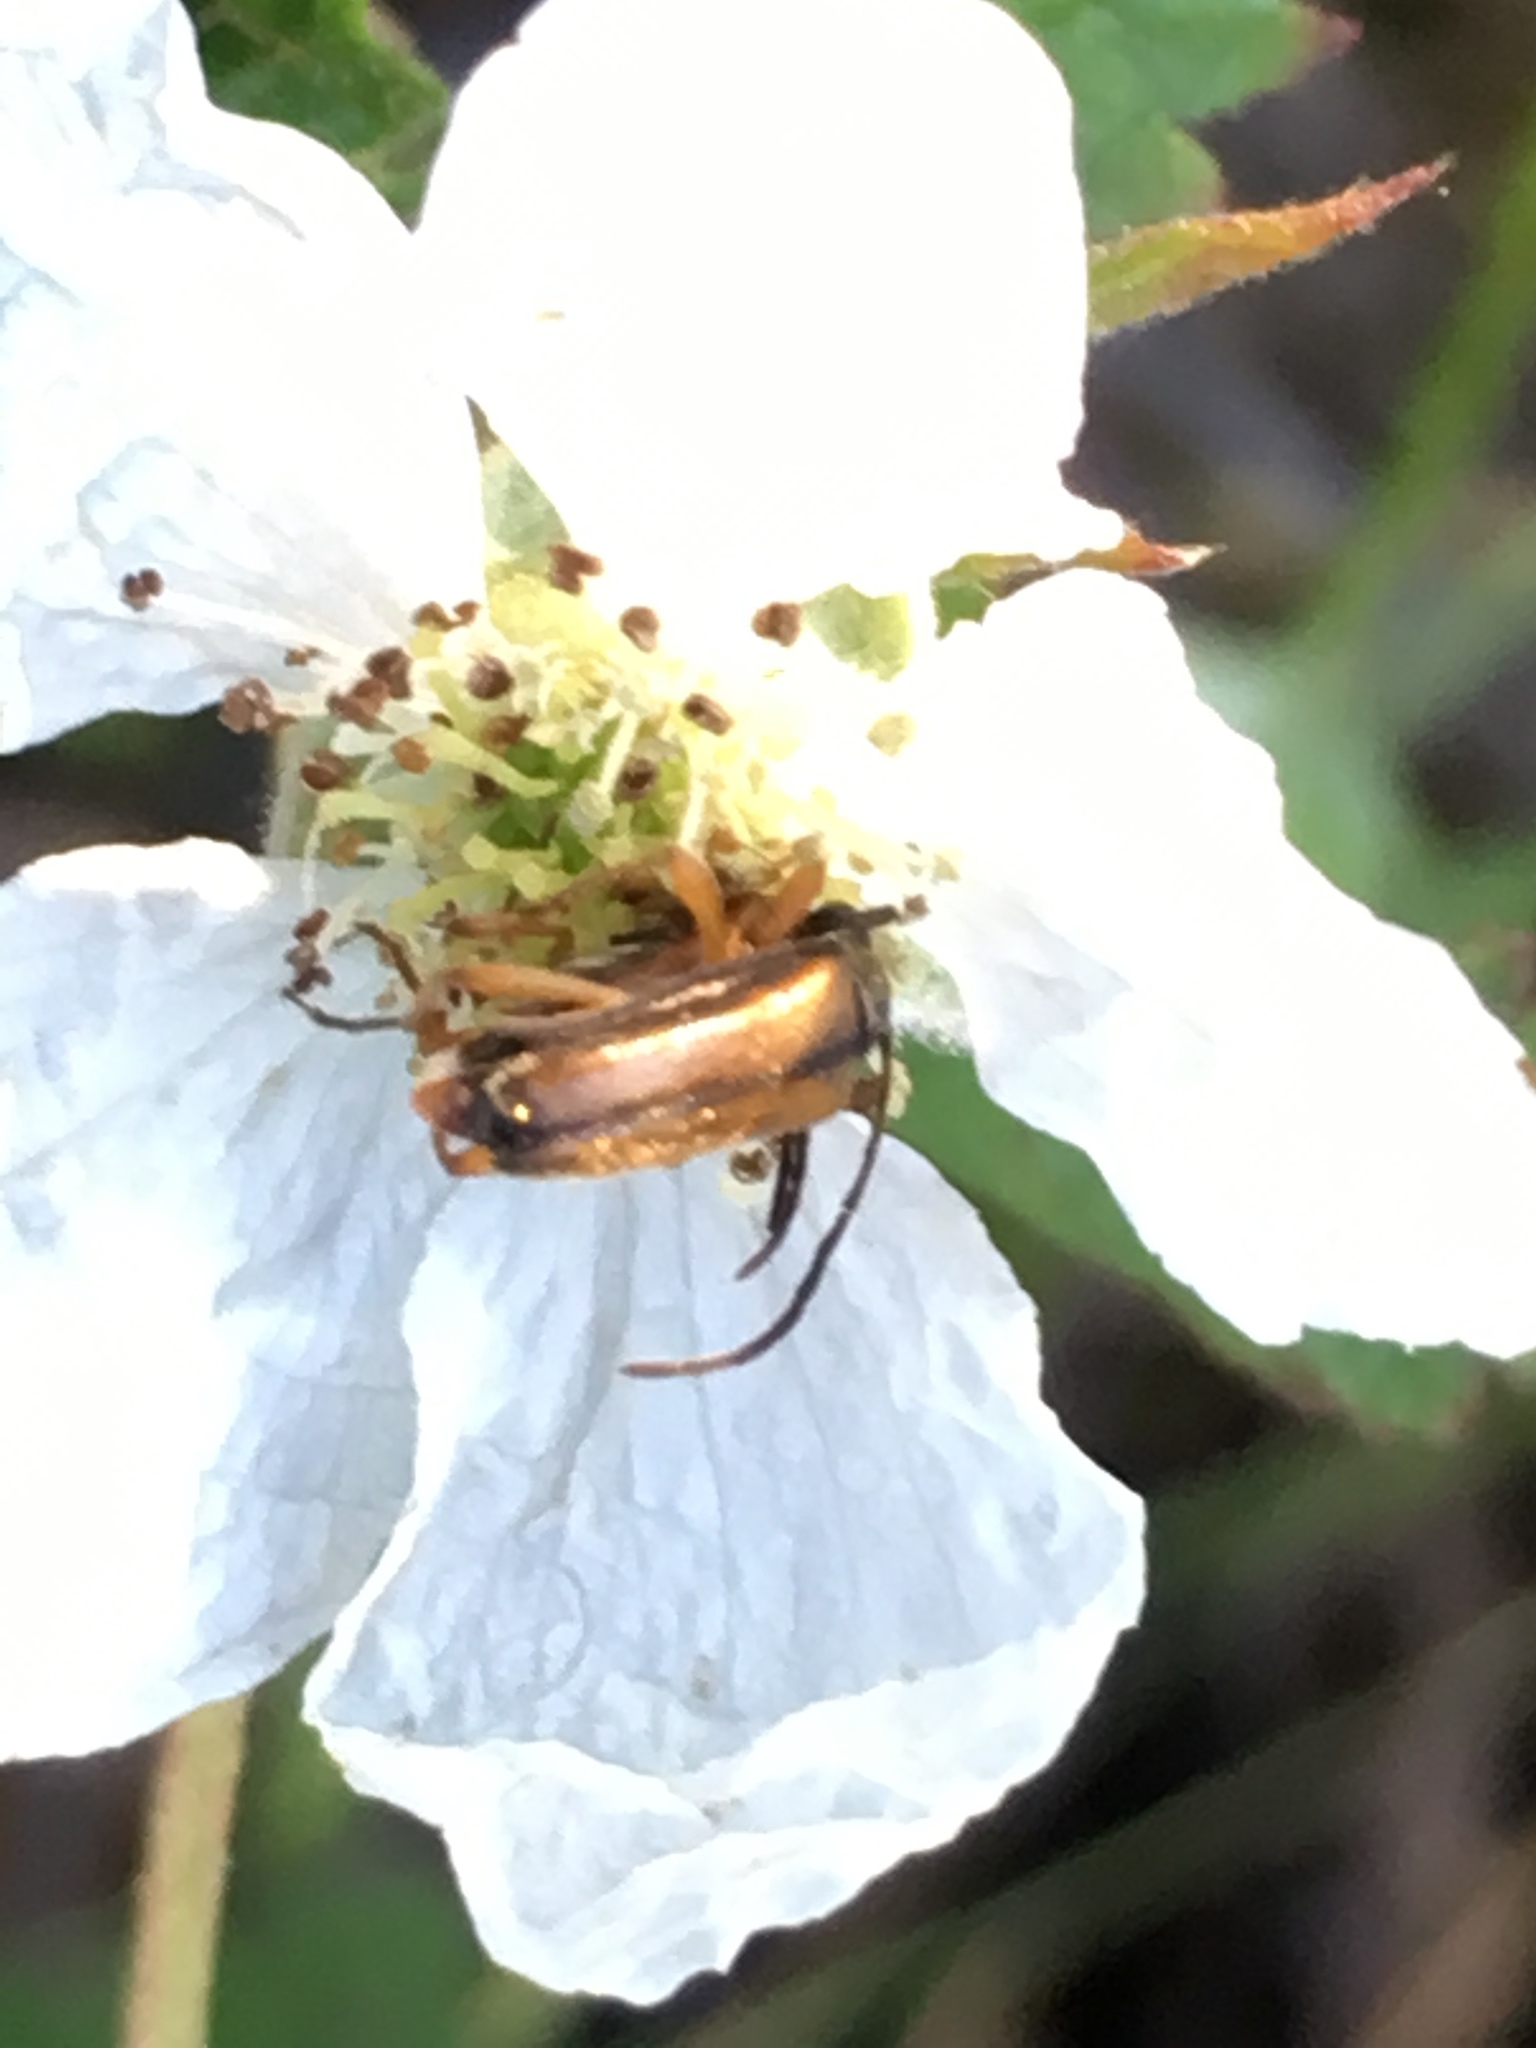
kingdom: Animalia
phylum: Arthropoda
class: Insecta
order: Coleoptera
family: Cerambycidae
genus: Alosterna
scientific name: Alosterna tabacicolor
